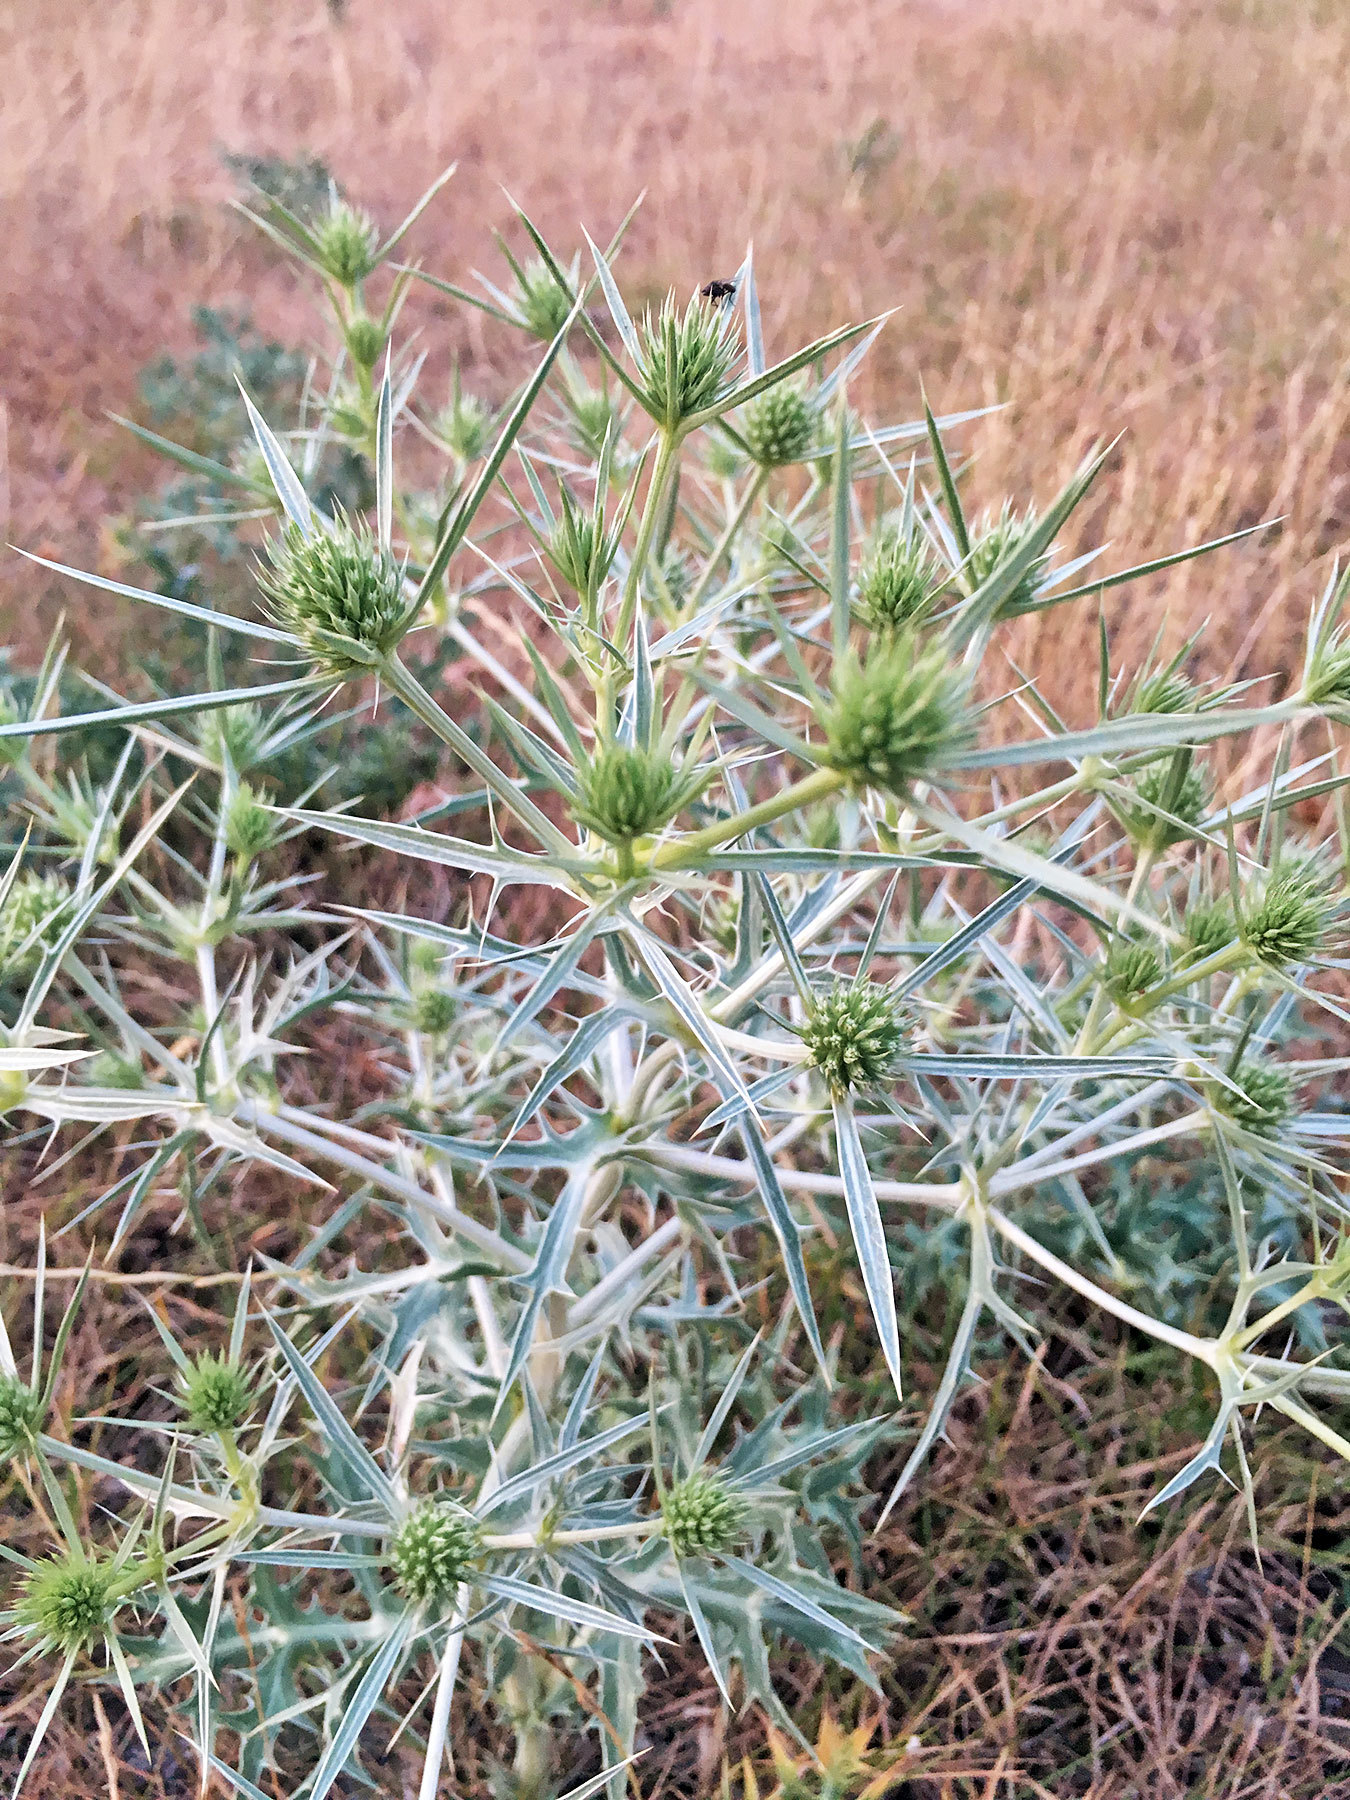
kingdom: Plantae
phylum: Tracheophyta
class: Magnoliopsida
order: Apiales
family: Apiaceae
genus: Eryngium
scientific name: Eryngium campestre
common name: Field eryngo
